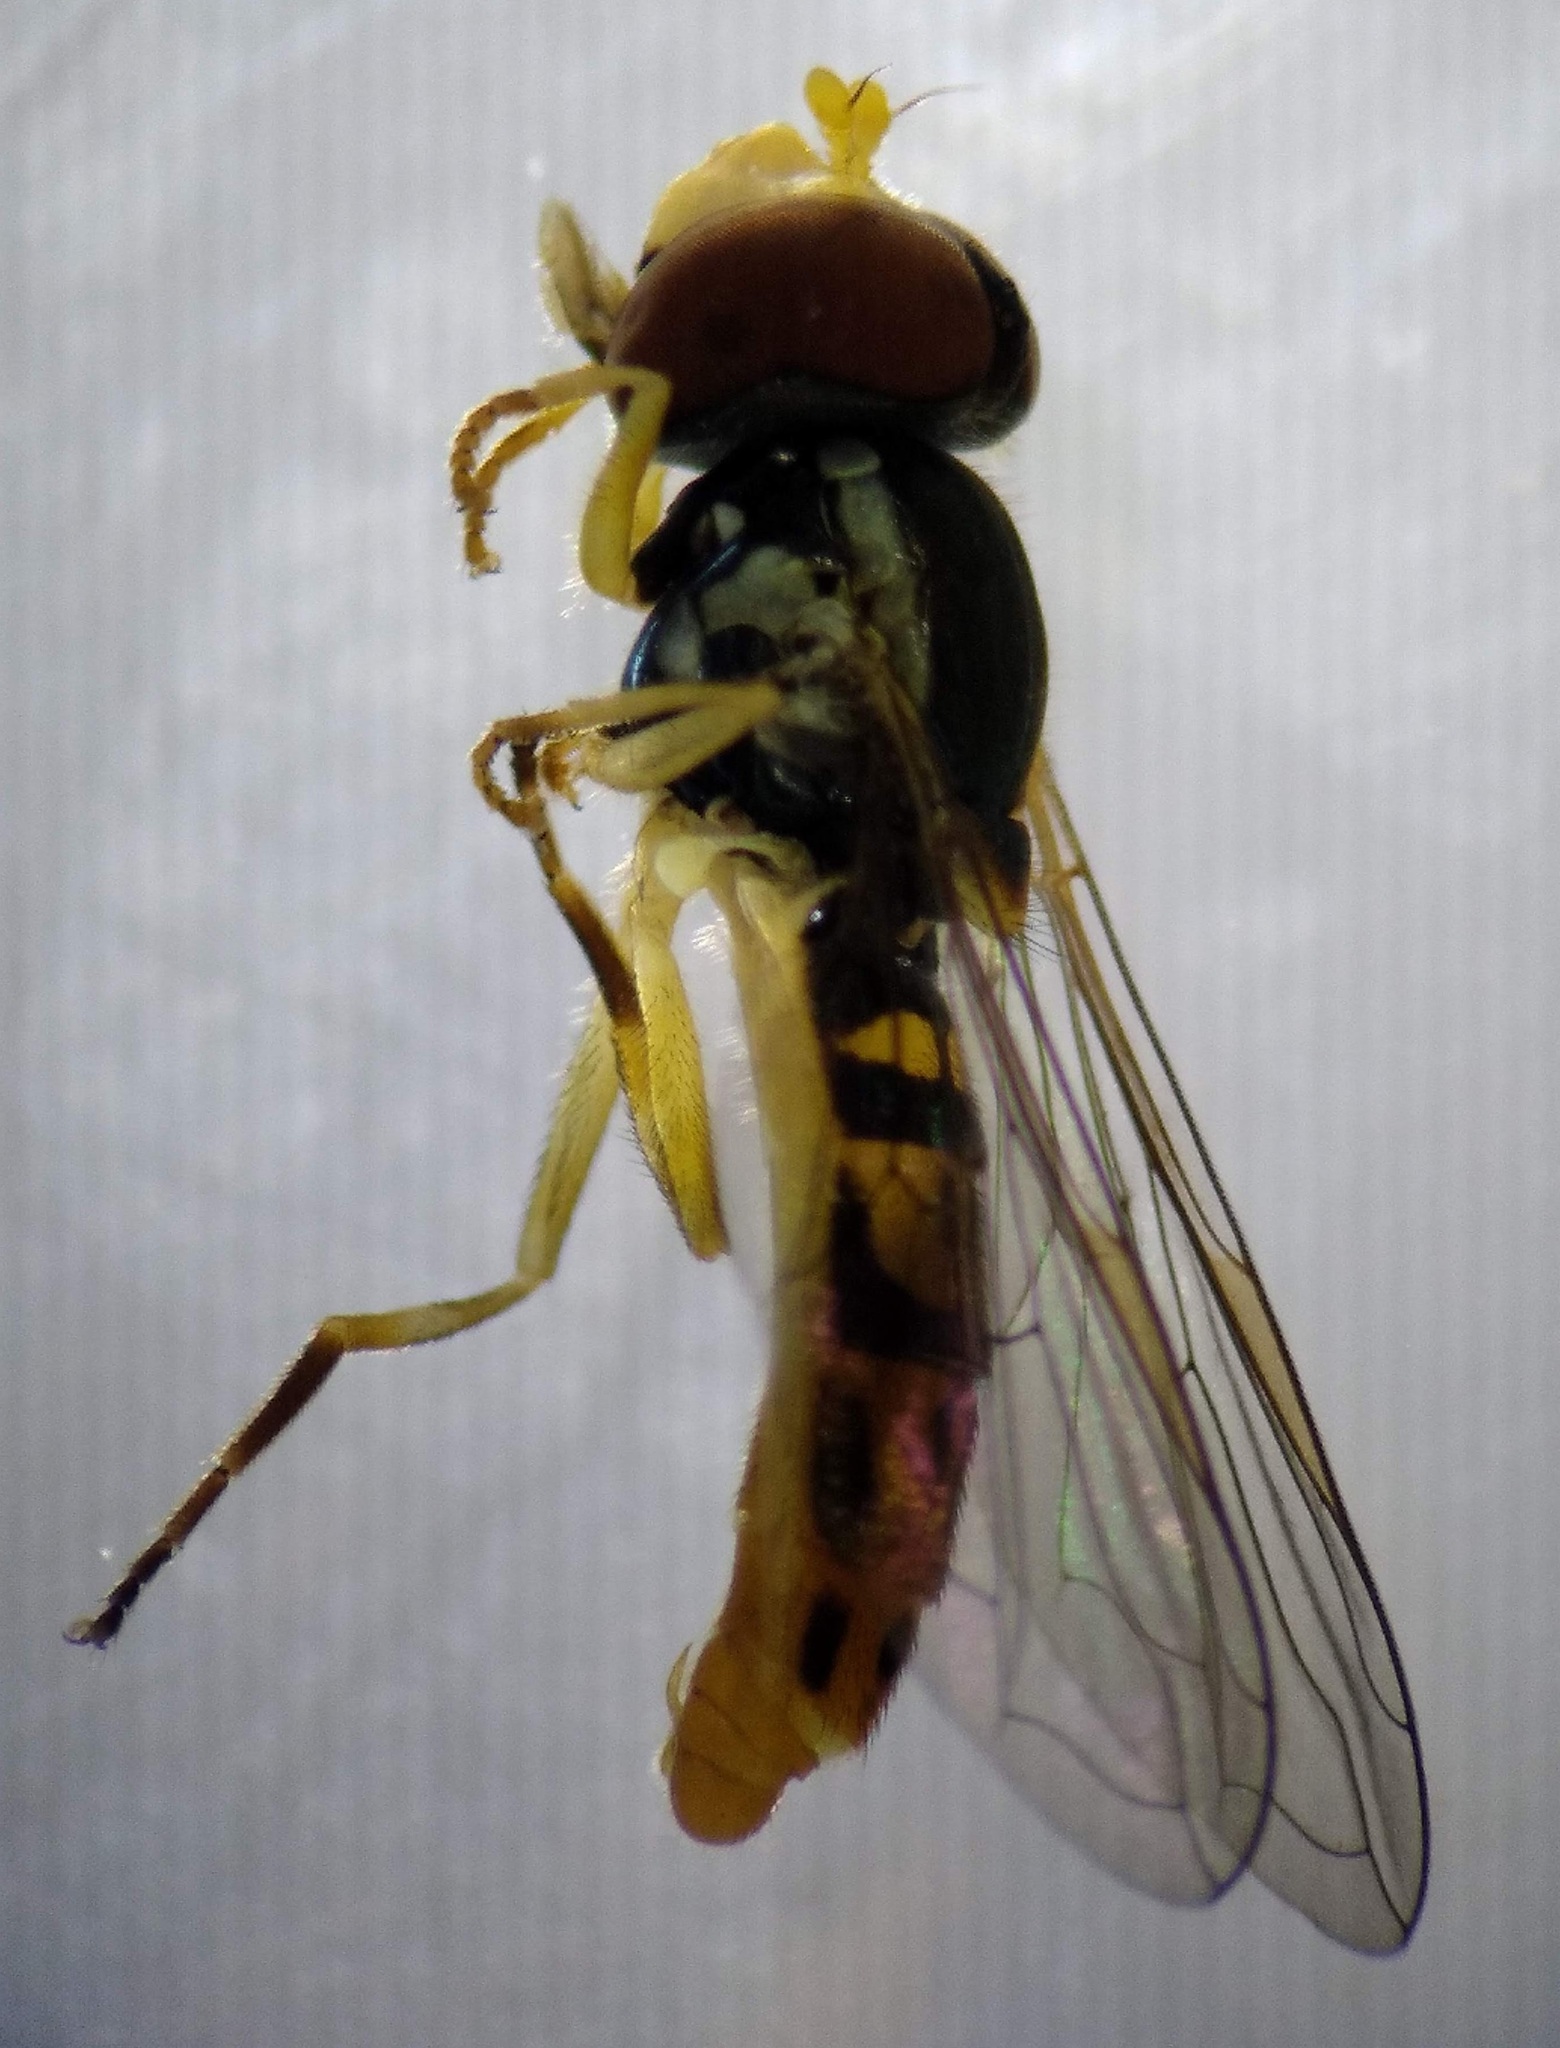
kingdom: Animalia
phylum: Arthropoda
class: Insecta
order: Diptera
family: Syrphidae
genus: Toxomerus
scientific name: Toxomerus marginatus
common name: Syrphid fly
